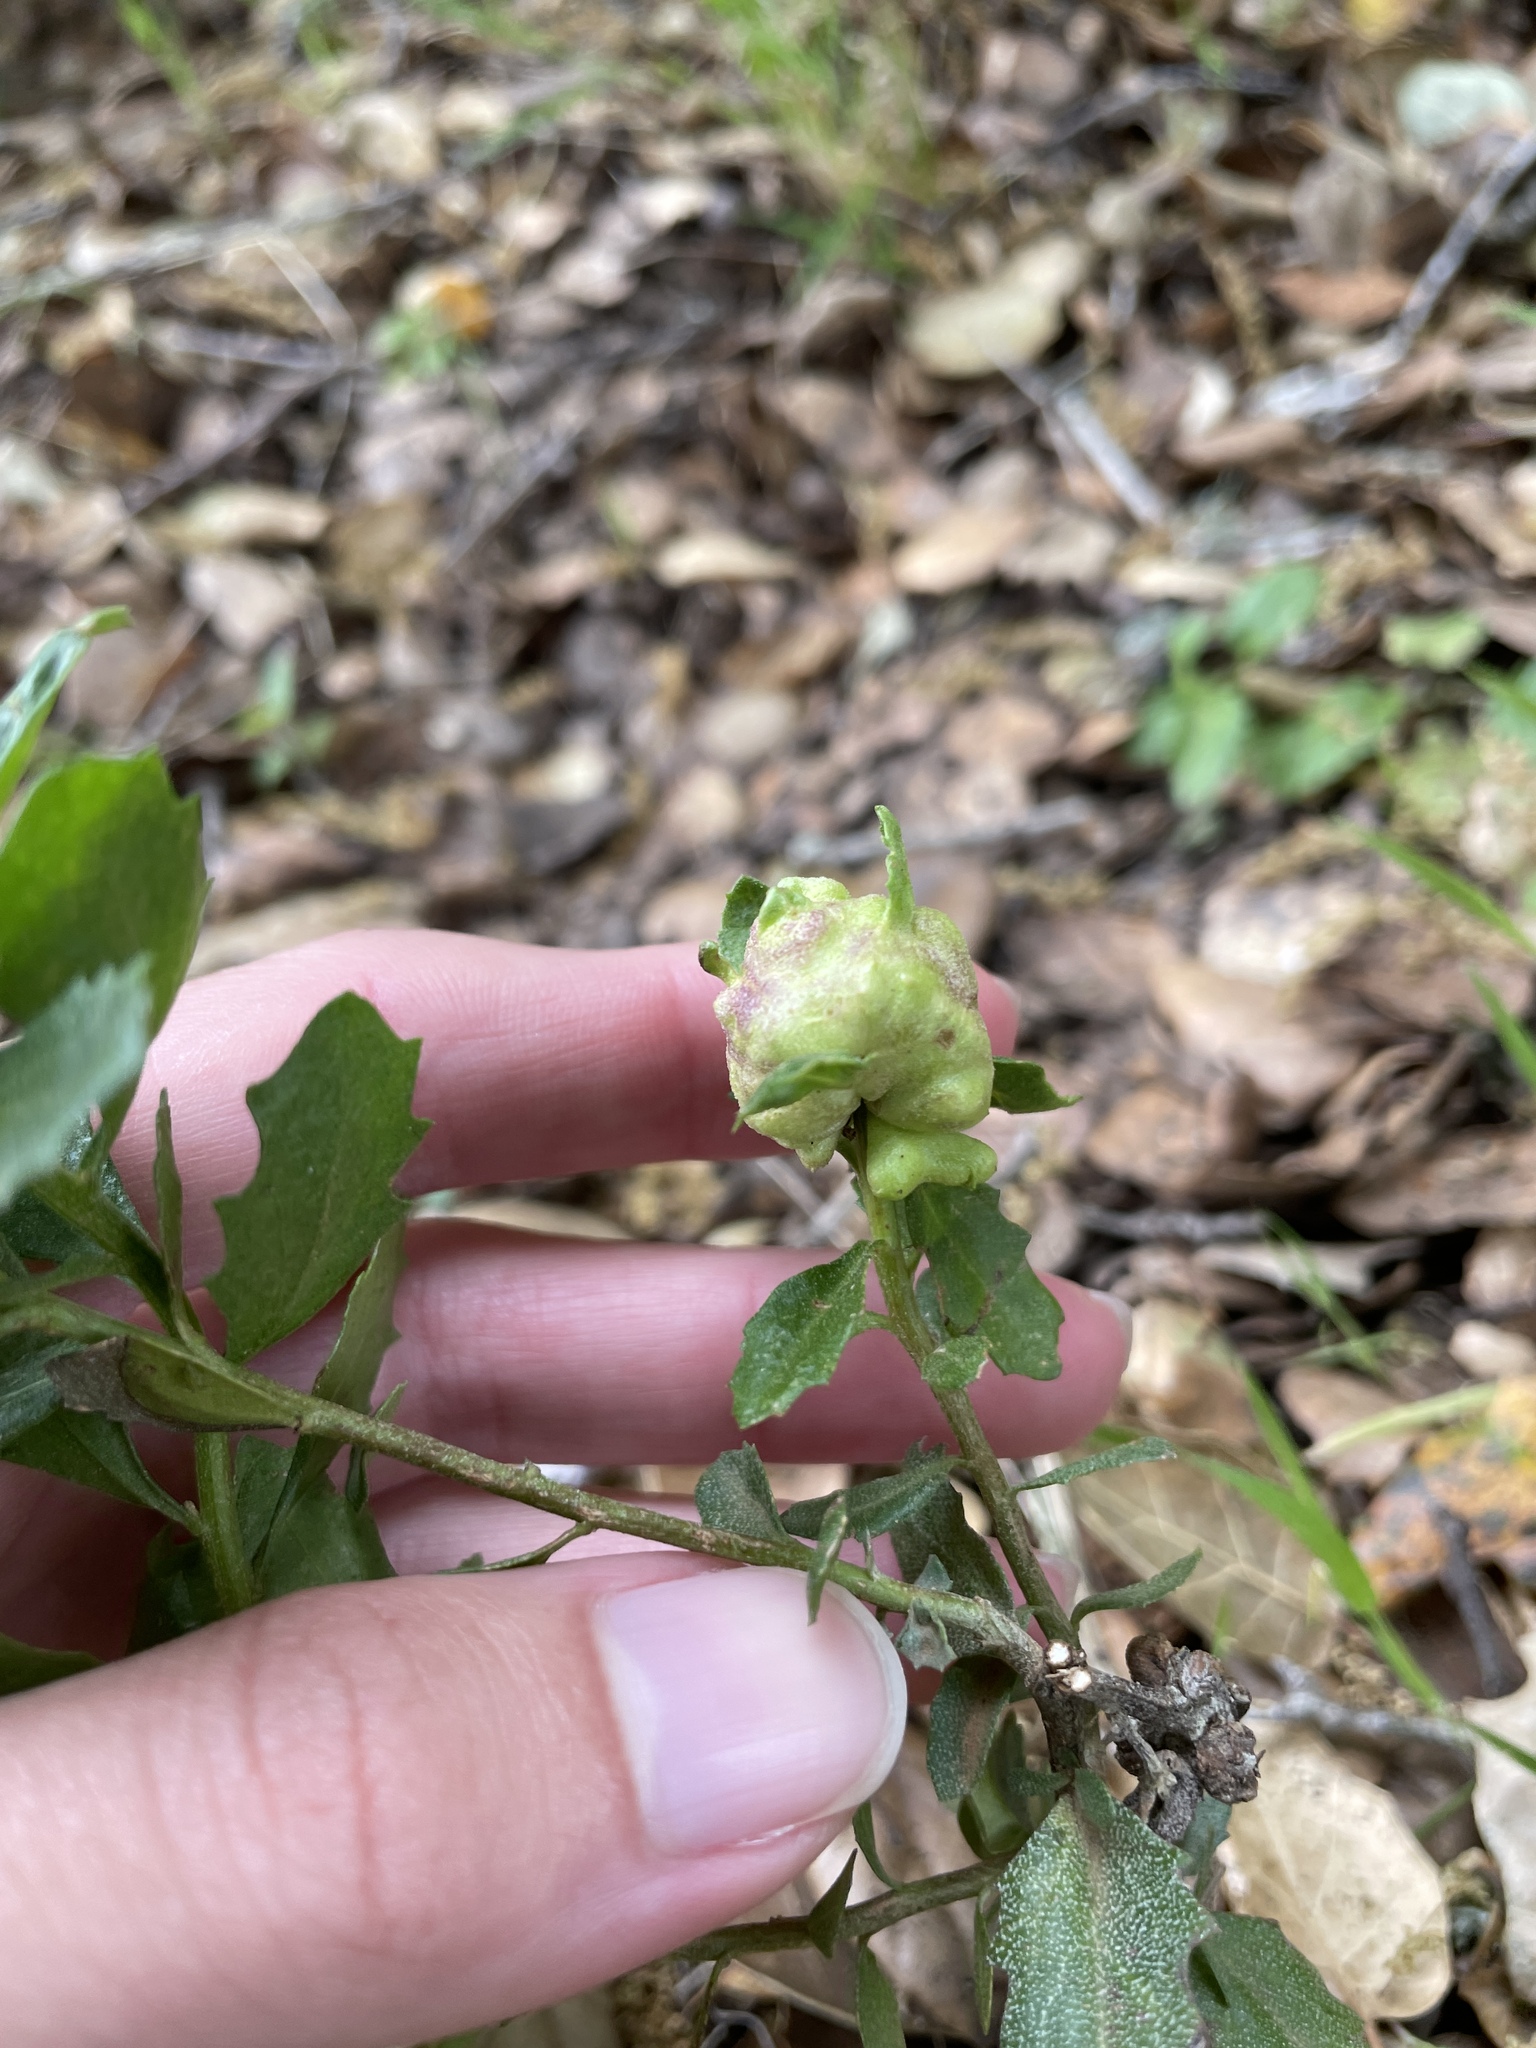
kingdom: Animalia
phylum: Arthropoda
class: Insecta
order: Diptera
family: Cecidomyiidae
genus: Rhopalomyia
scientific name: Rhopalomyia californica
